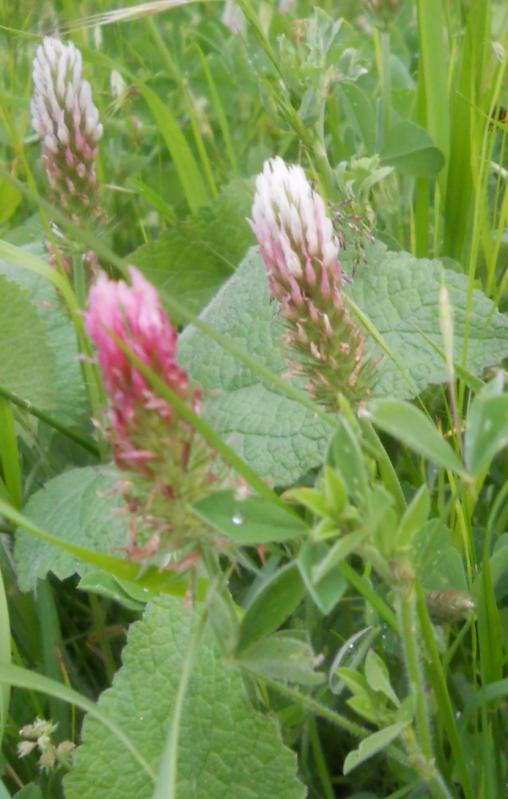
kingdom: Plantae
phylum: Tracheophyta
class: Magnoliopsida
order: Fabales
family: Fabaceae
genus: Trifolium
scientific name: Trifolium incarnatum
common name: Crimson clover
